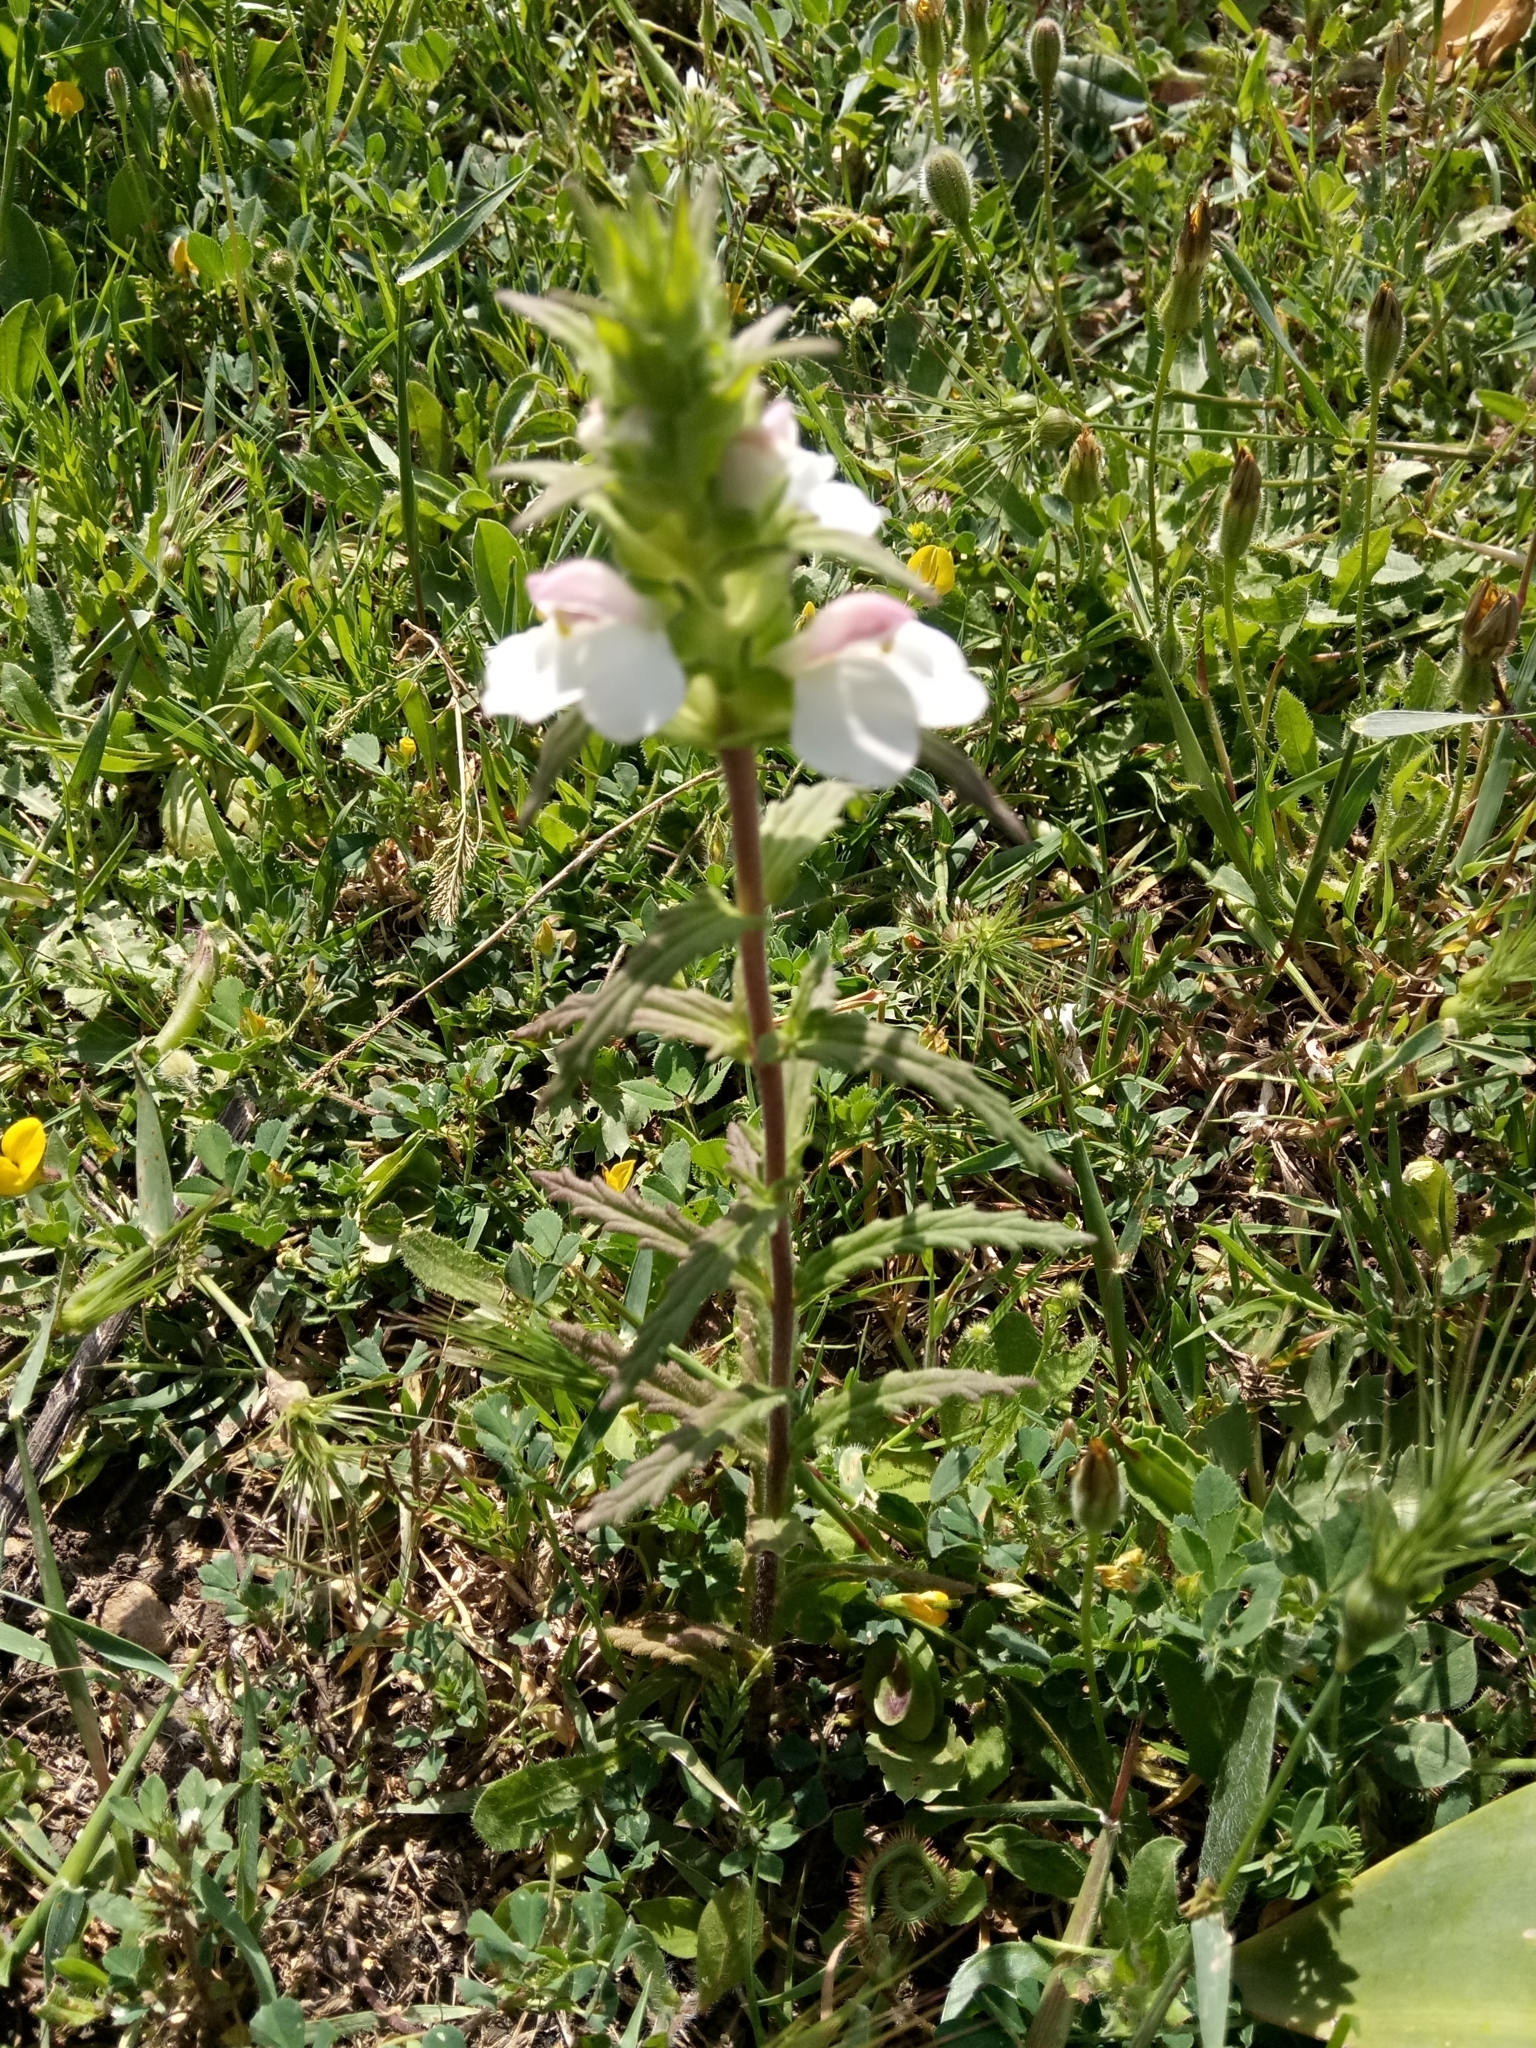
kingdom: Plantae
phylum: Tracheophyta
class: Magnoliopsida
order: Lamiales
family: Orobanchaceae
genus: Bellardia
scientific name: Bellardia trixago
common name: Mediterranean lineseed
